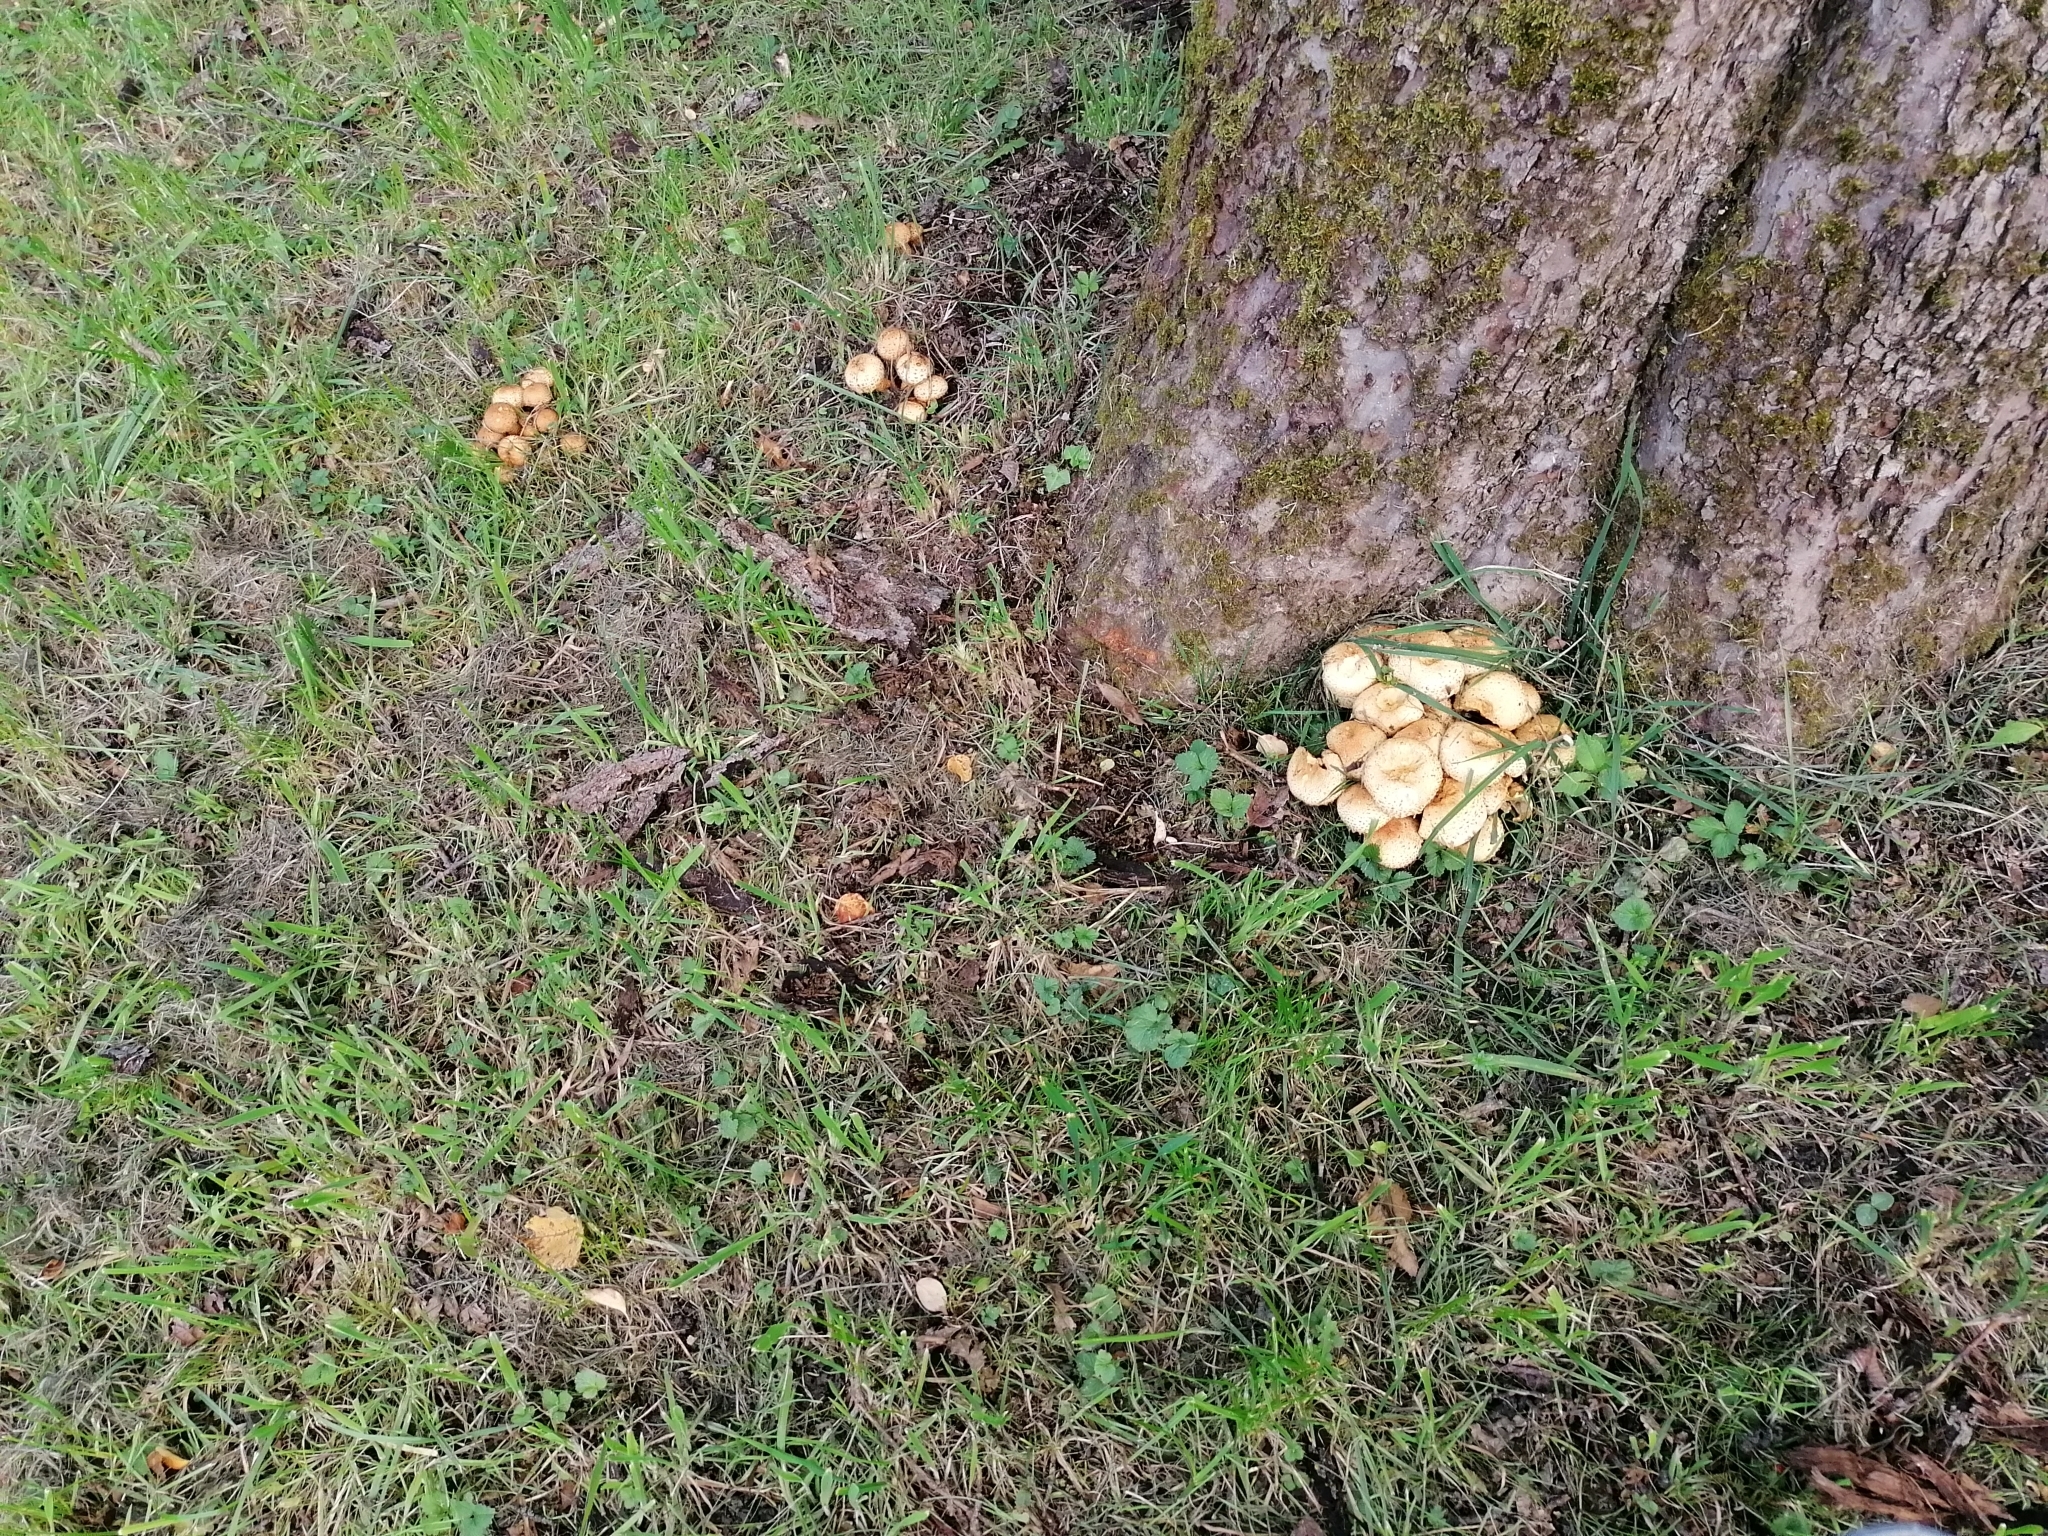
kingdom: Fungi
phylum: Basidiomycota
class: Agaricomycetes
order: Agaricales
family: Strophariaceae
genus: Pholiota
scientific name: Pholiota squarrosa
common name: Shaggy pholiota
